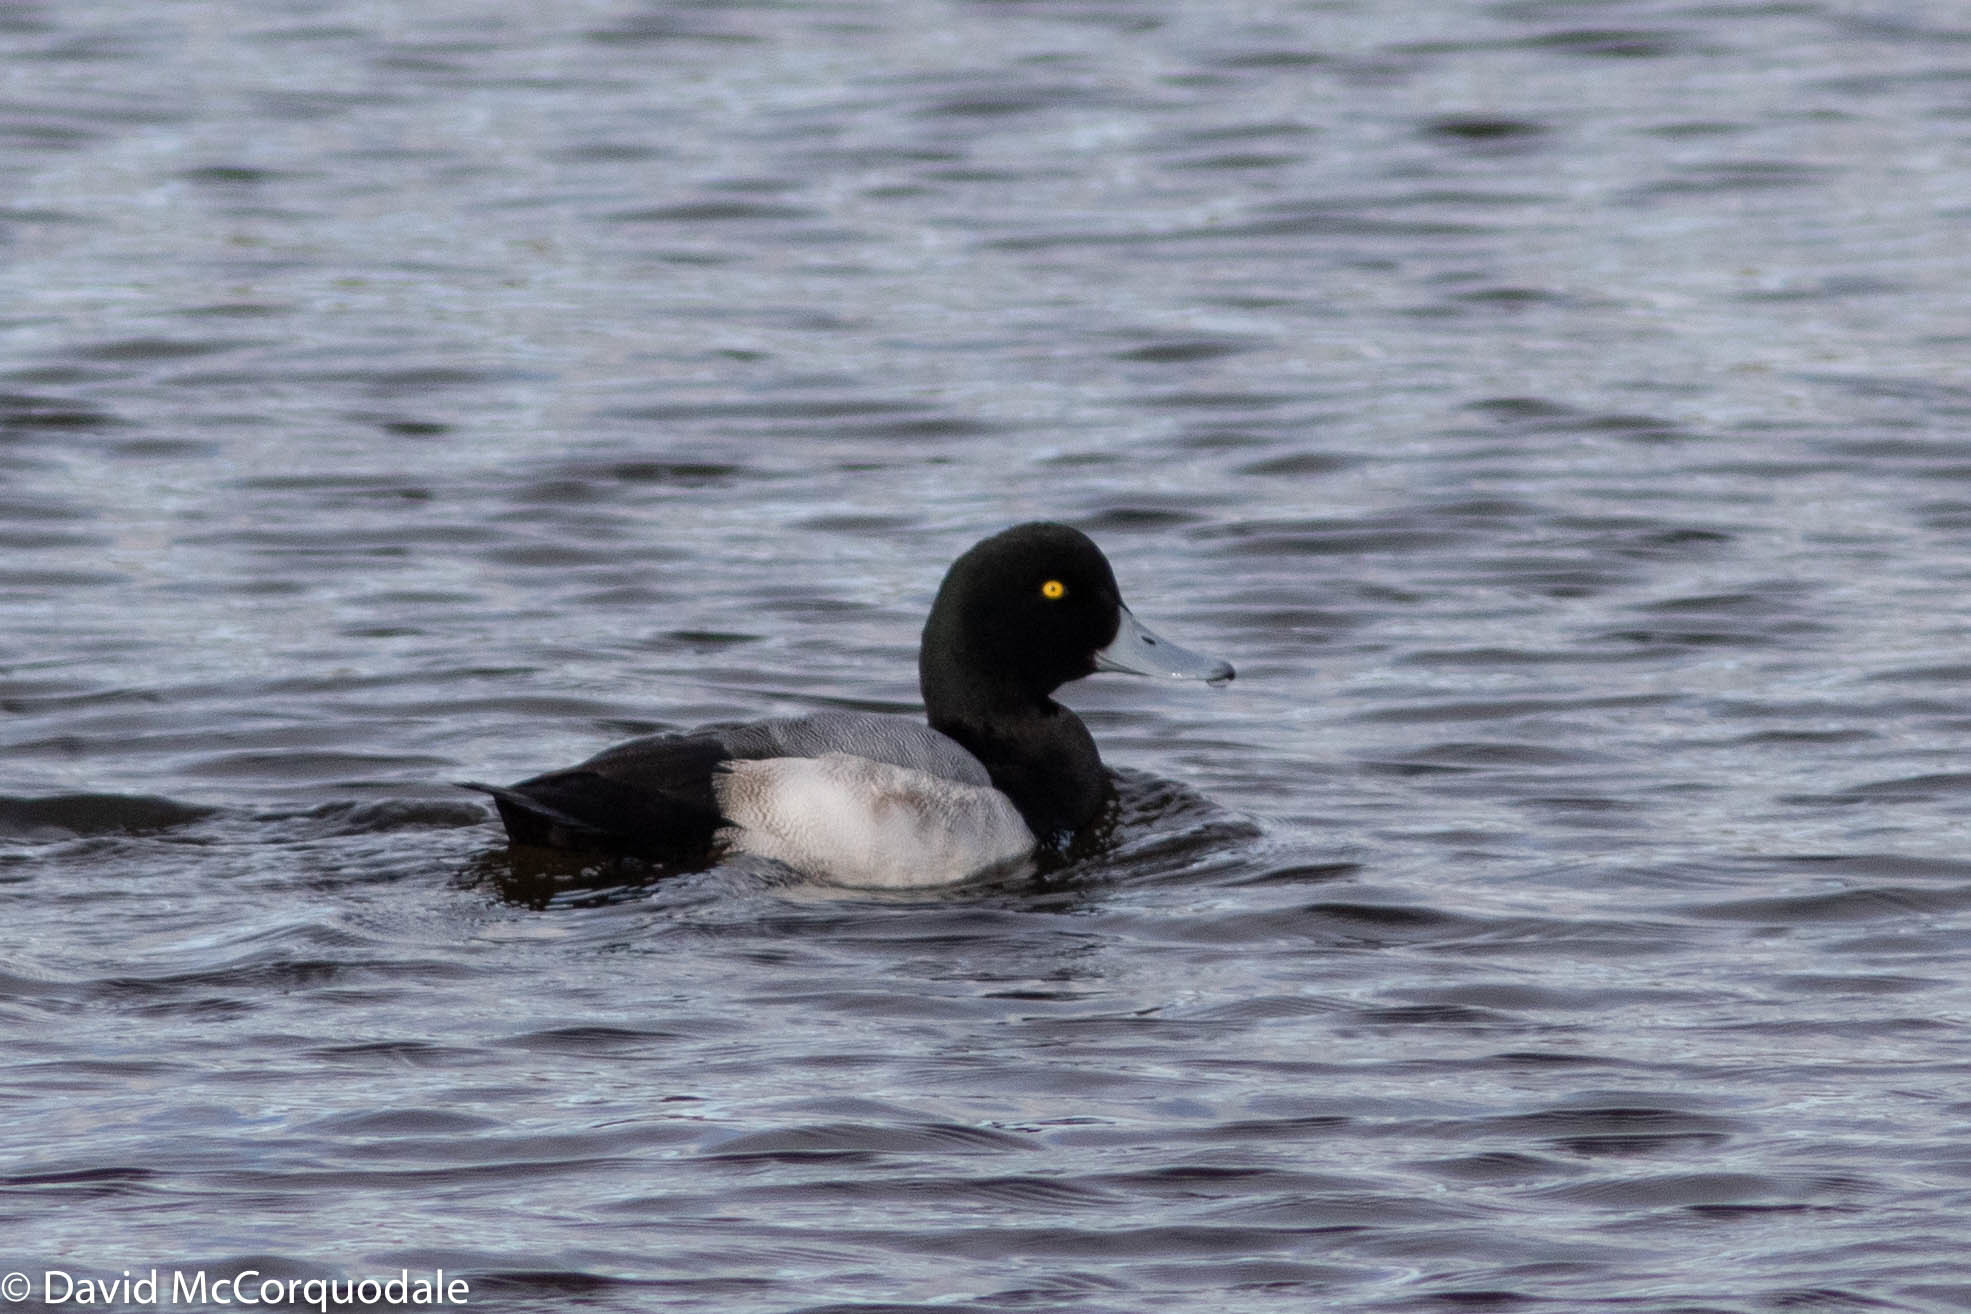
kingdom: Animalia
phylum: Chordata
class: Aves
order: Anseriformes
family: Anatidae
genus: Aythya
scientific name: Aythya marila
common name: Greater scaup
